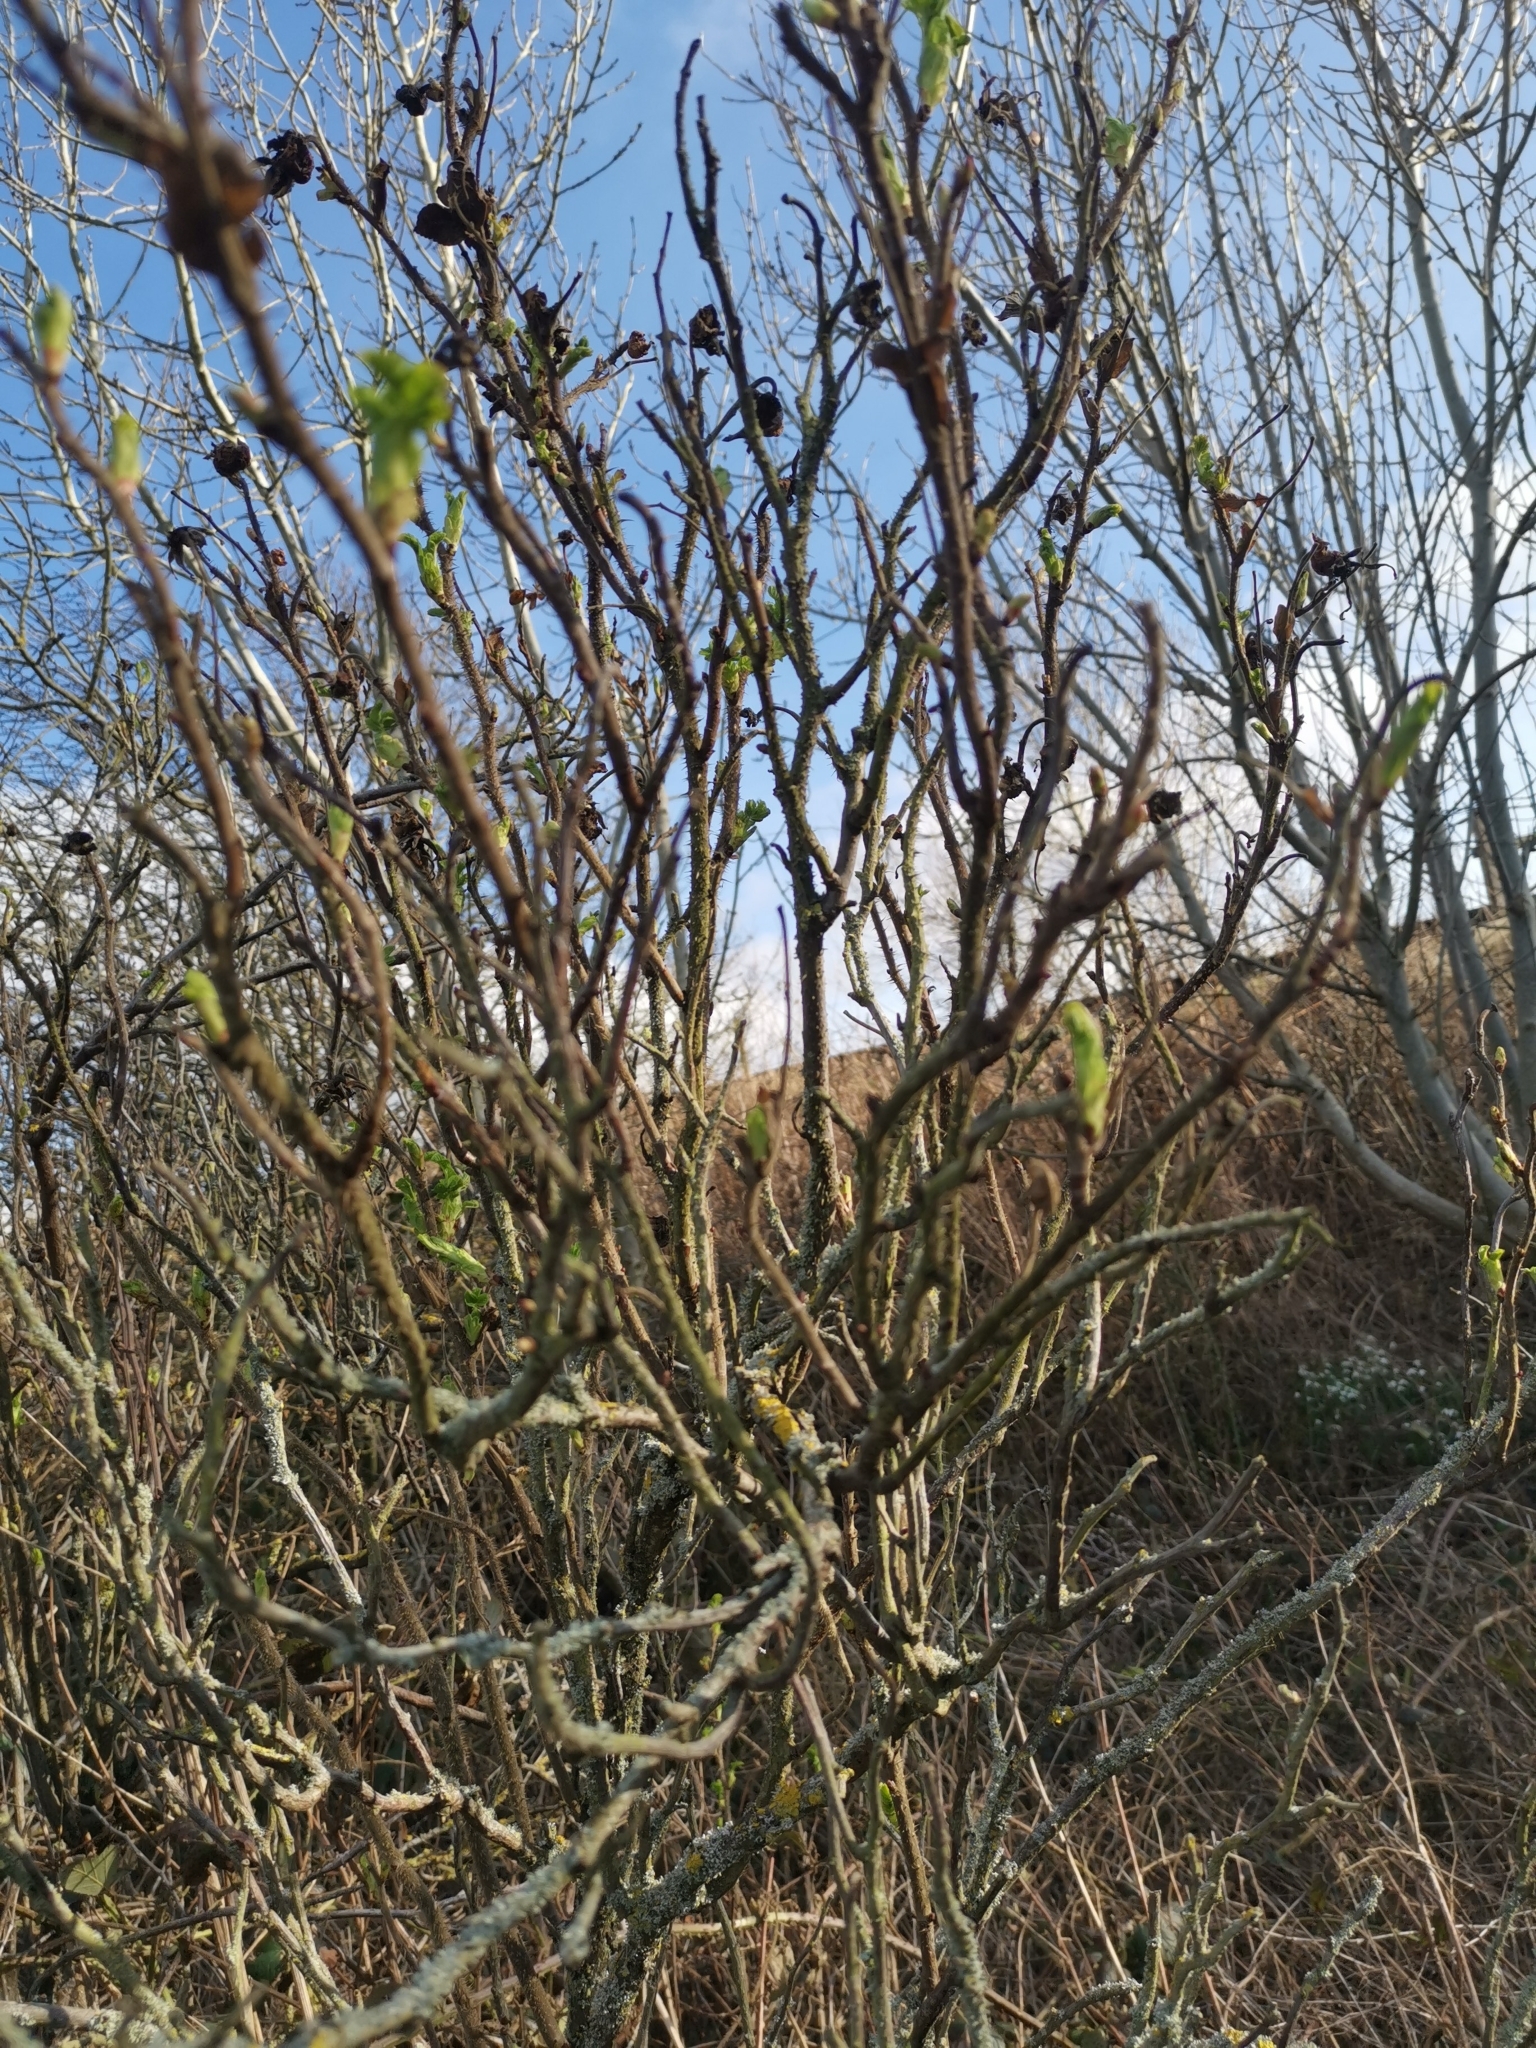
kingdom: Plantae
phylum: Tracheophyta
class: Magnoliopsida
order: Rosales
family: Rosaceae
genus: Rosa
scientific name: Rosa rugosa
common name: Japanese rose
